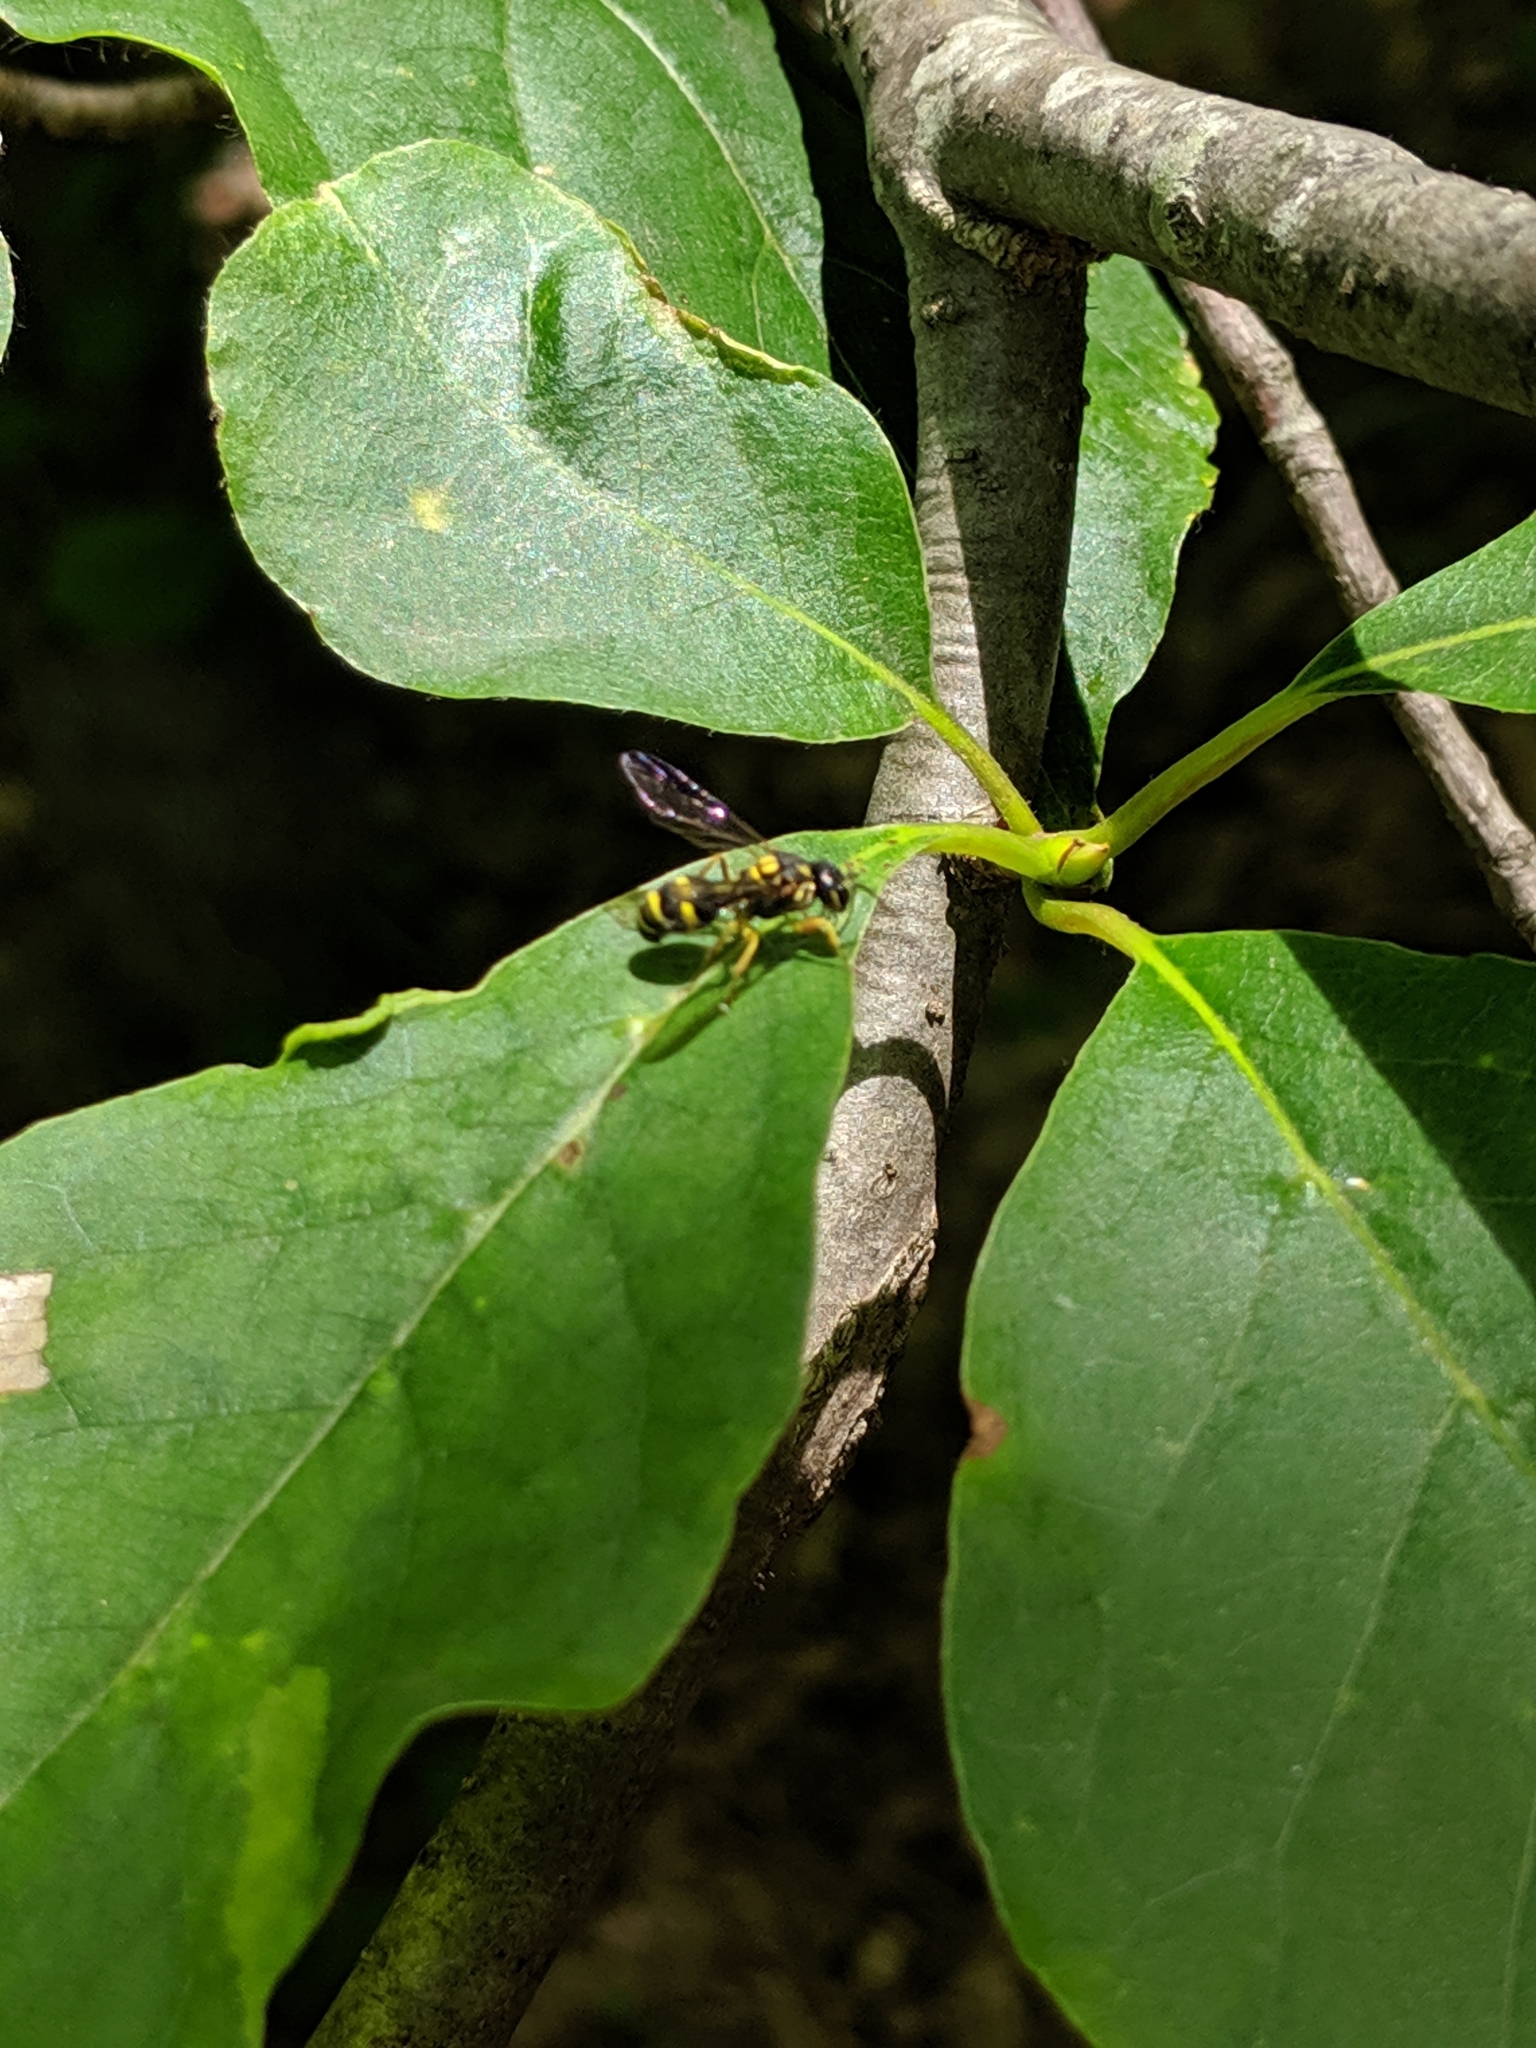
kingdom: Animalia
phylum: Arthropoda
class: Insecta
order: Hymenoptera
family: Trigonalidae
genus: Taeniogonalos
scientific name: Taeniogonalos gundlachii
